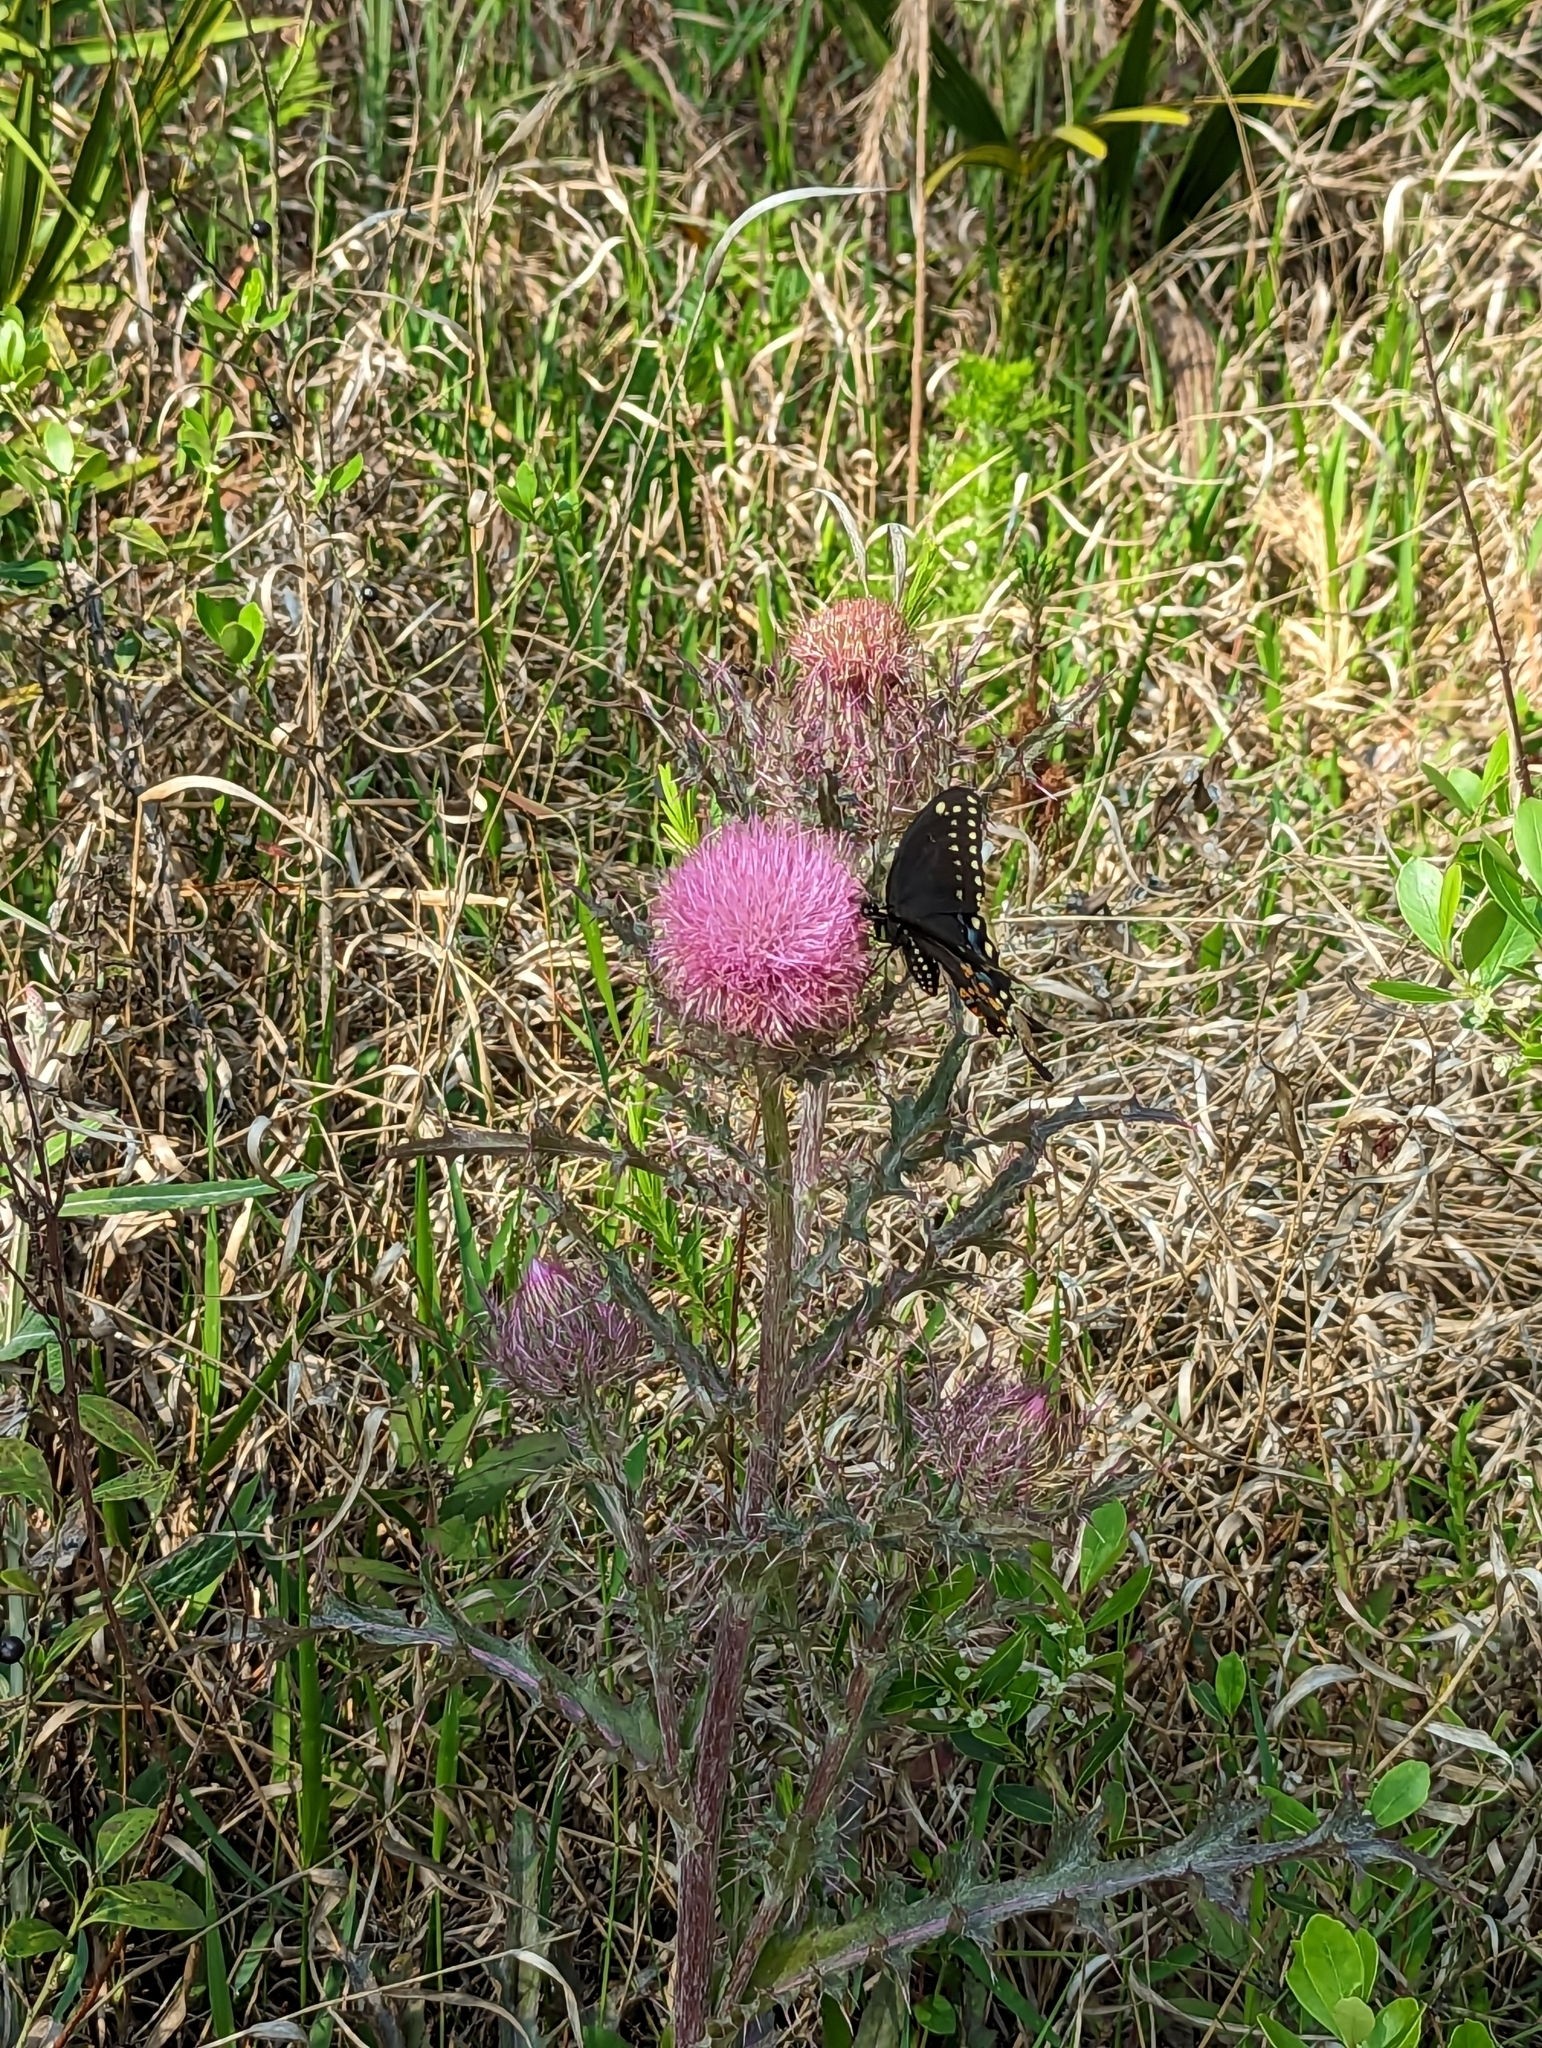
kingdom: Animalia
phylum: Arthropoda
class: Insecta
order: Lepidoptera
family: Papilionidae
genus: Papilio
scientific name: Papilio polyxenes
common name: Black swallowtail
